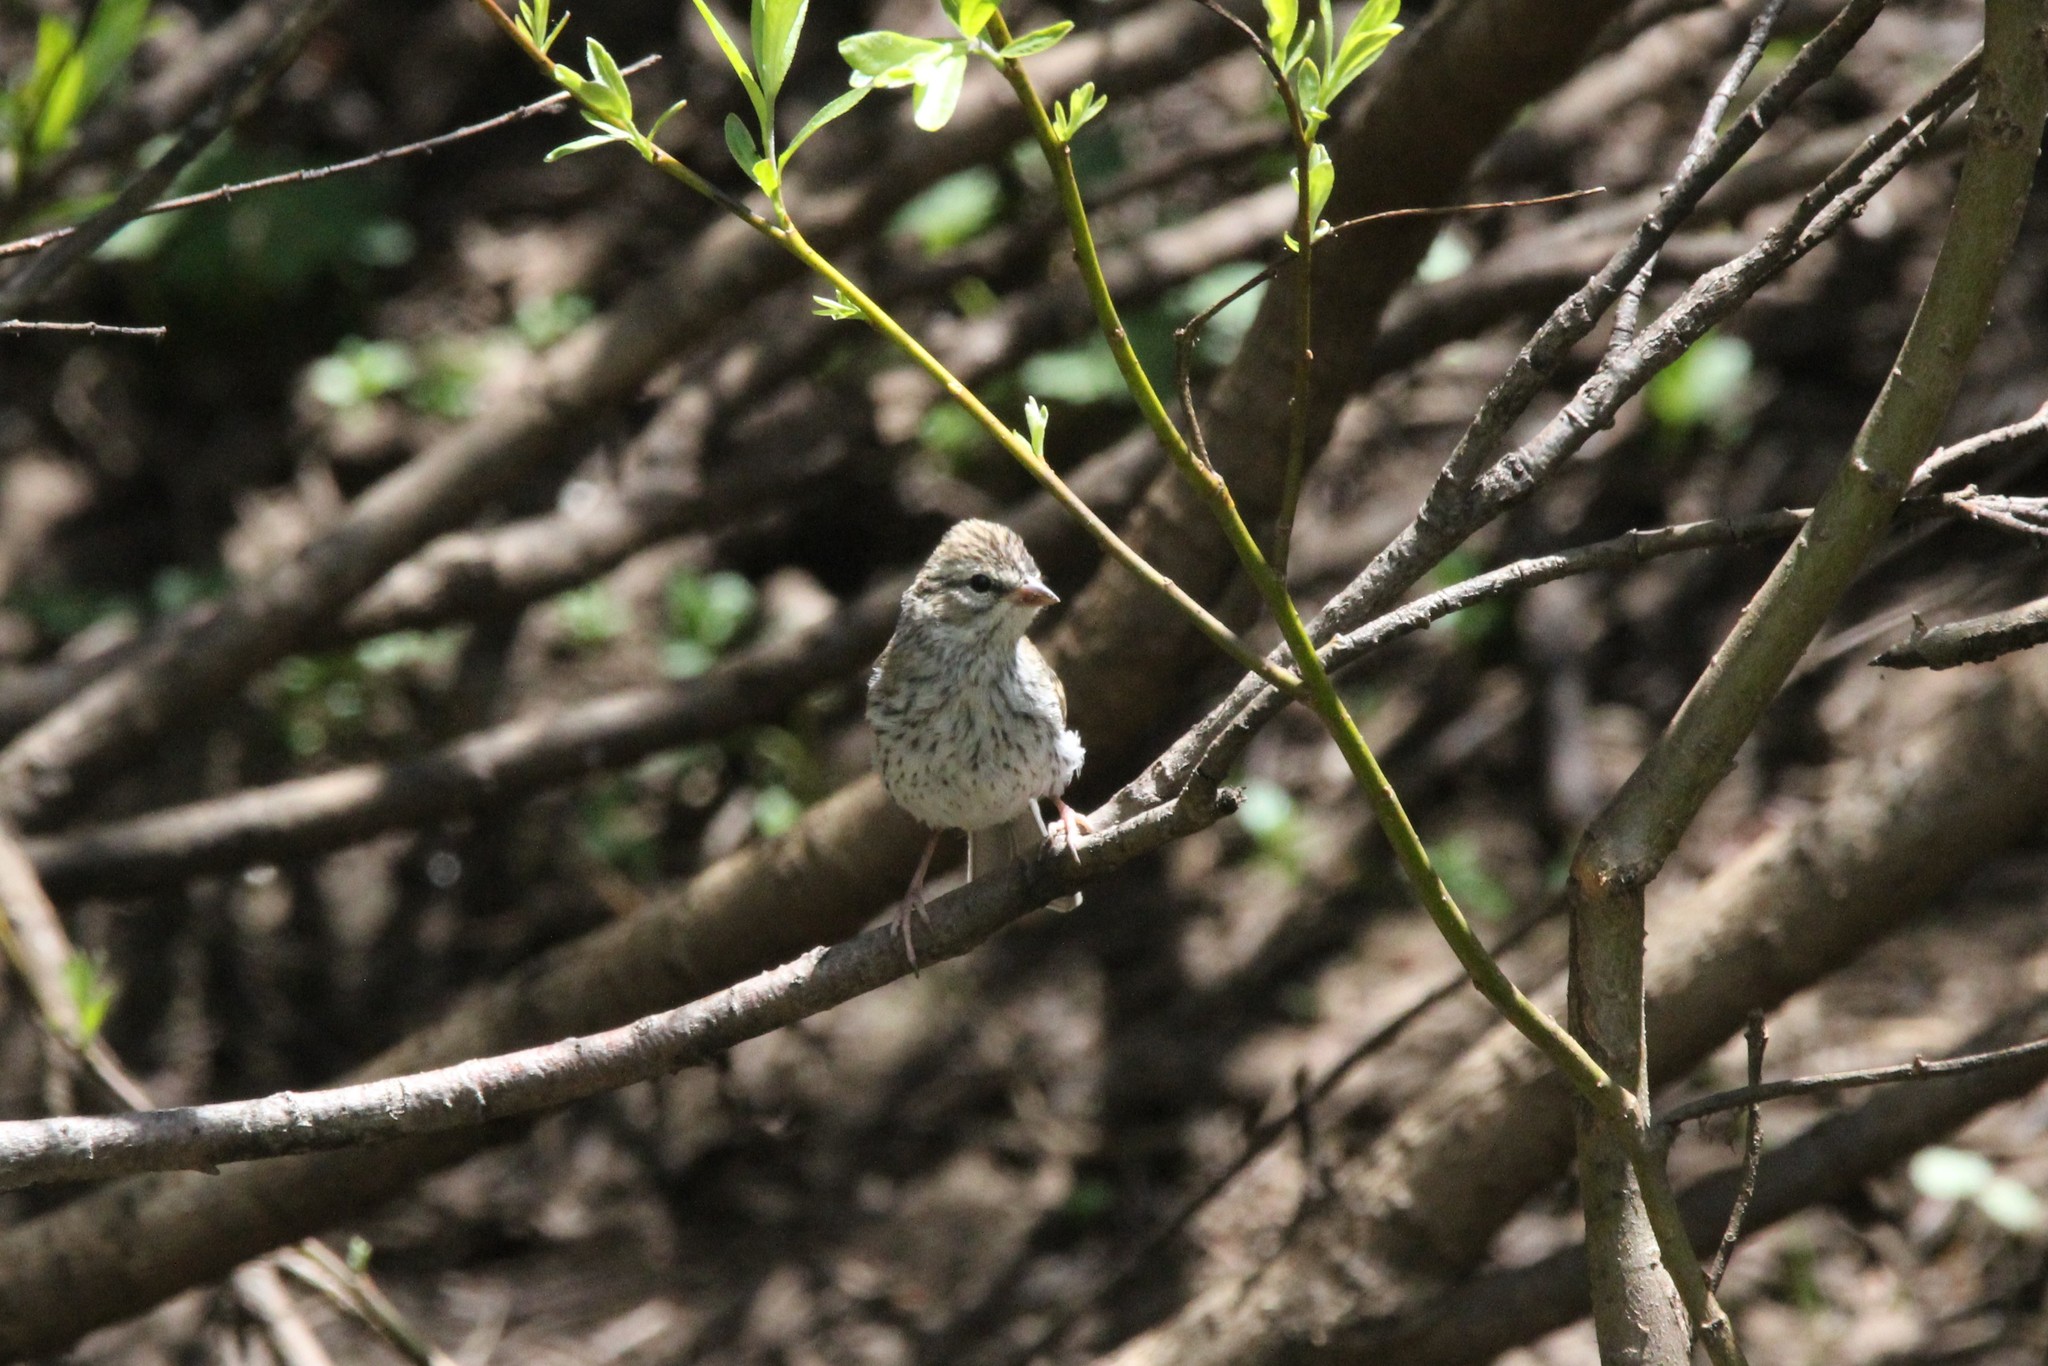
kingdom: Animalia
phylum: Chordata
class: Aves
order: Passeriformes
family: Passerellidae
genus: Spizella
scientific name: Spizella passerina
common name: Chipping sparrow
